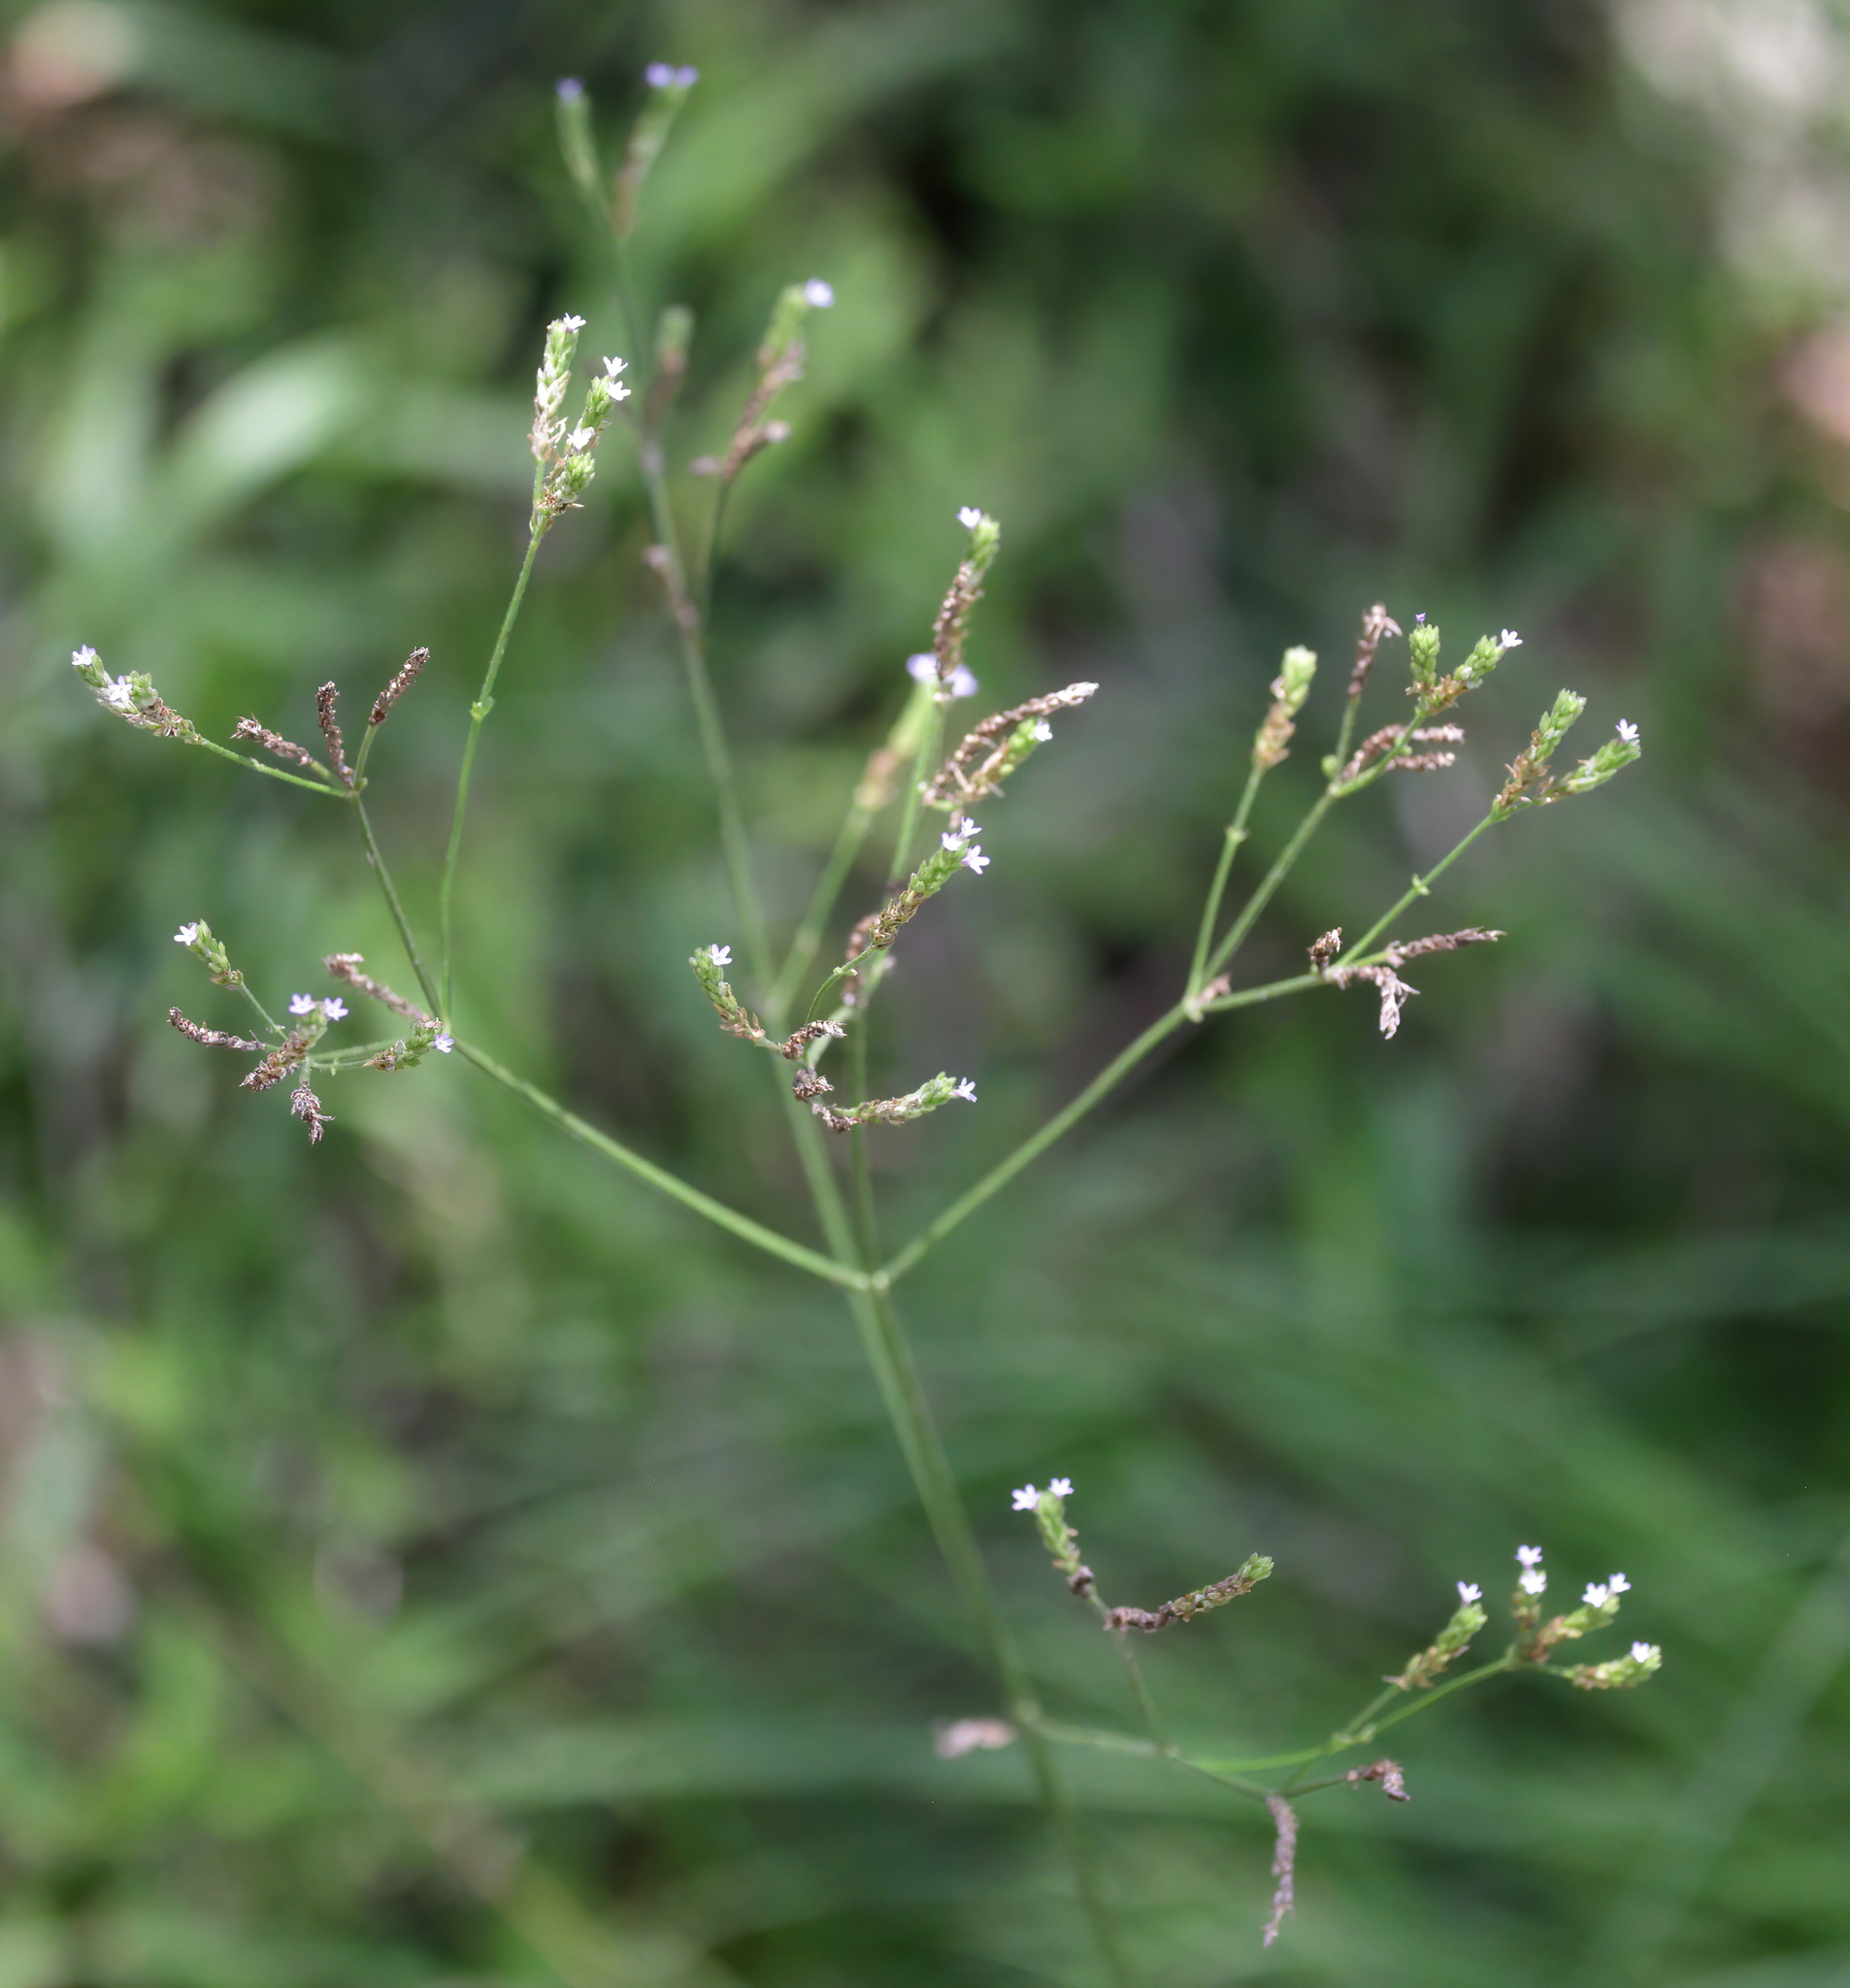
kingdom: Plantae
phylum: Tracheophyta
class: Magnoliopsida
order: Lamiales
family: Verbenaceae
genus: Verbena
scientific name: Verbena brasiliensis
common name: Brazilian vervain
